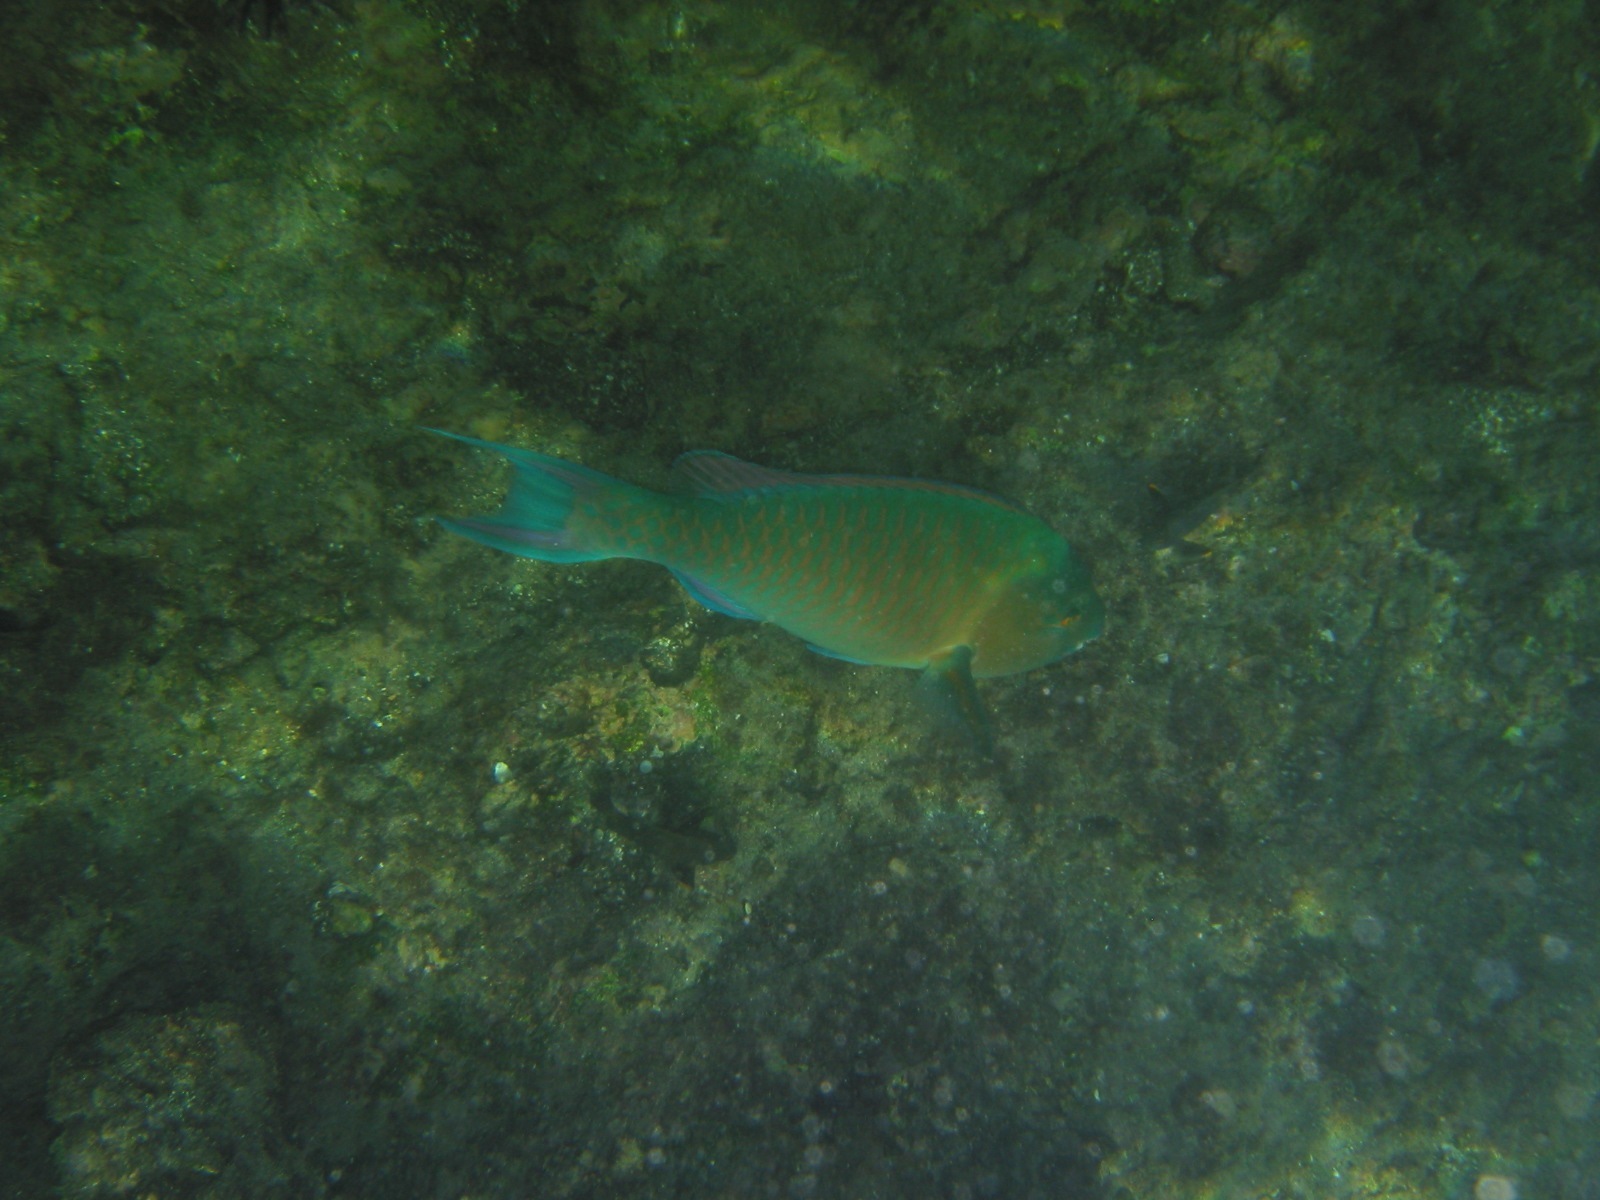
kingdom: Animalia
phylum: Chordata
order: Perciformes
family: Scaridae
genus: Scarus
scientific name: Scarus ghobban
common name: Blue-barred parrotfish
